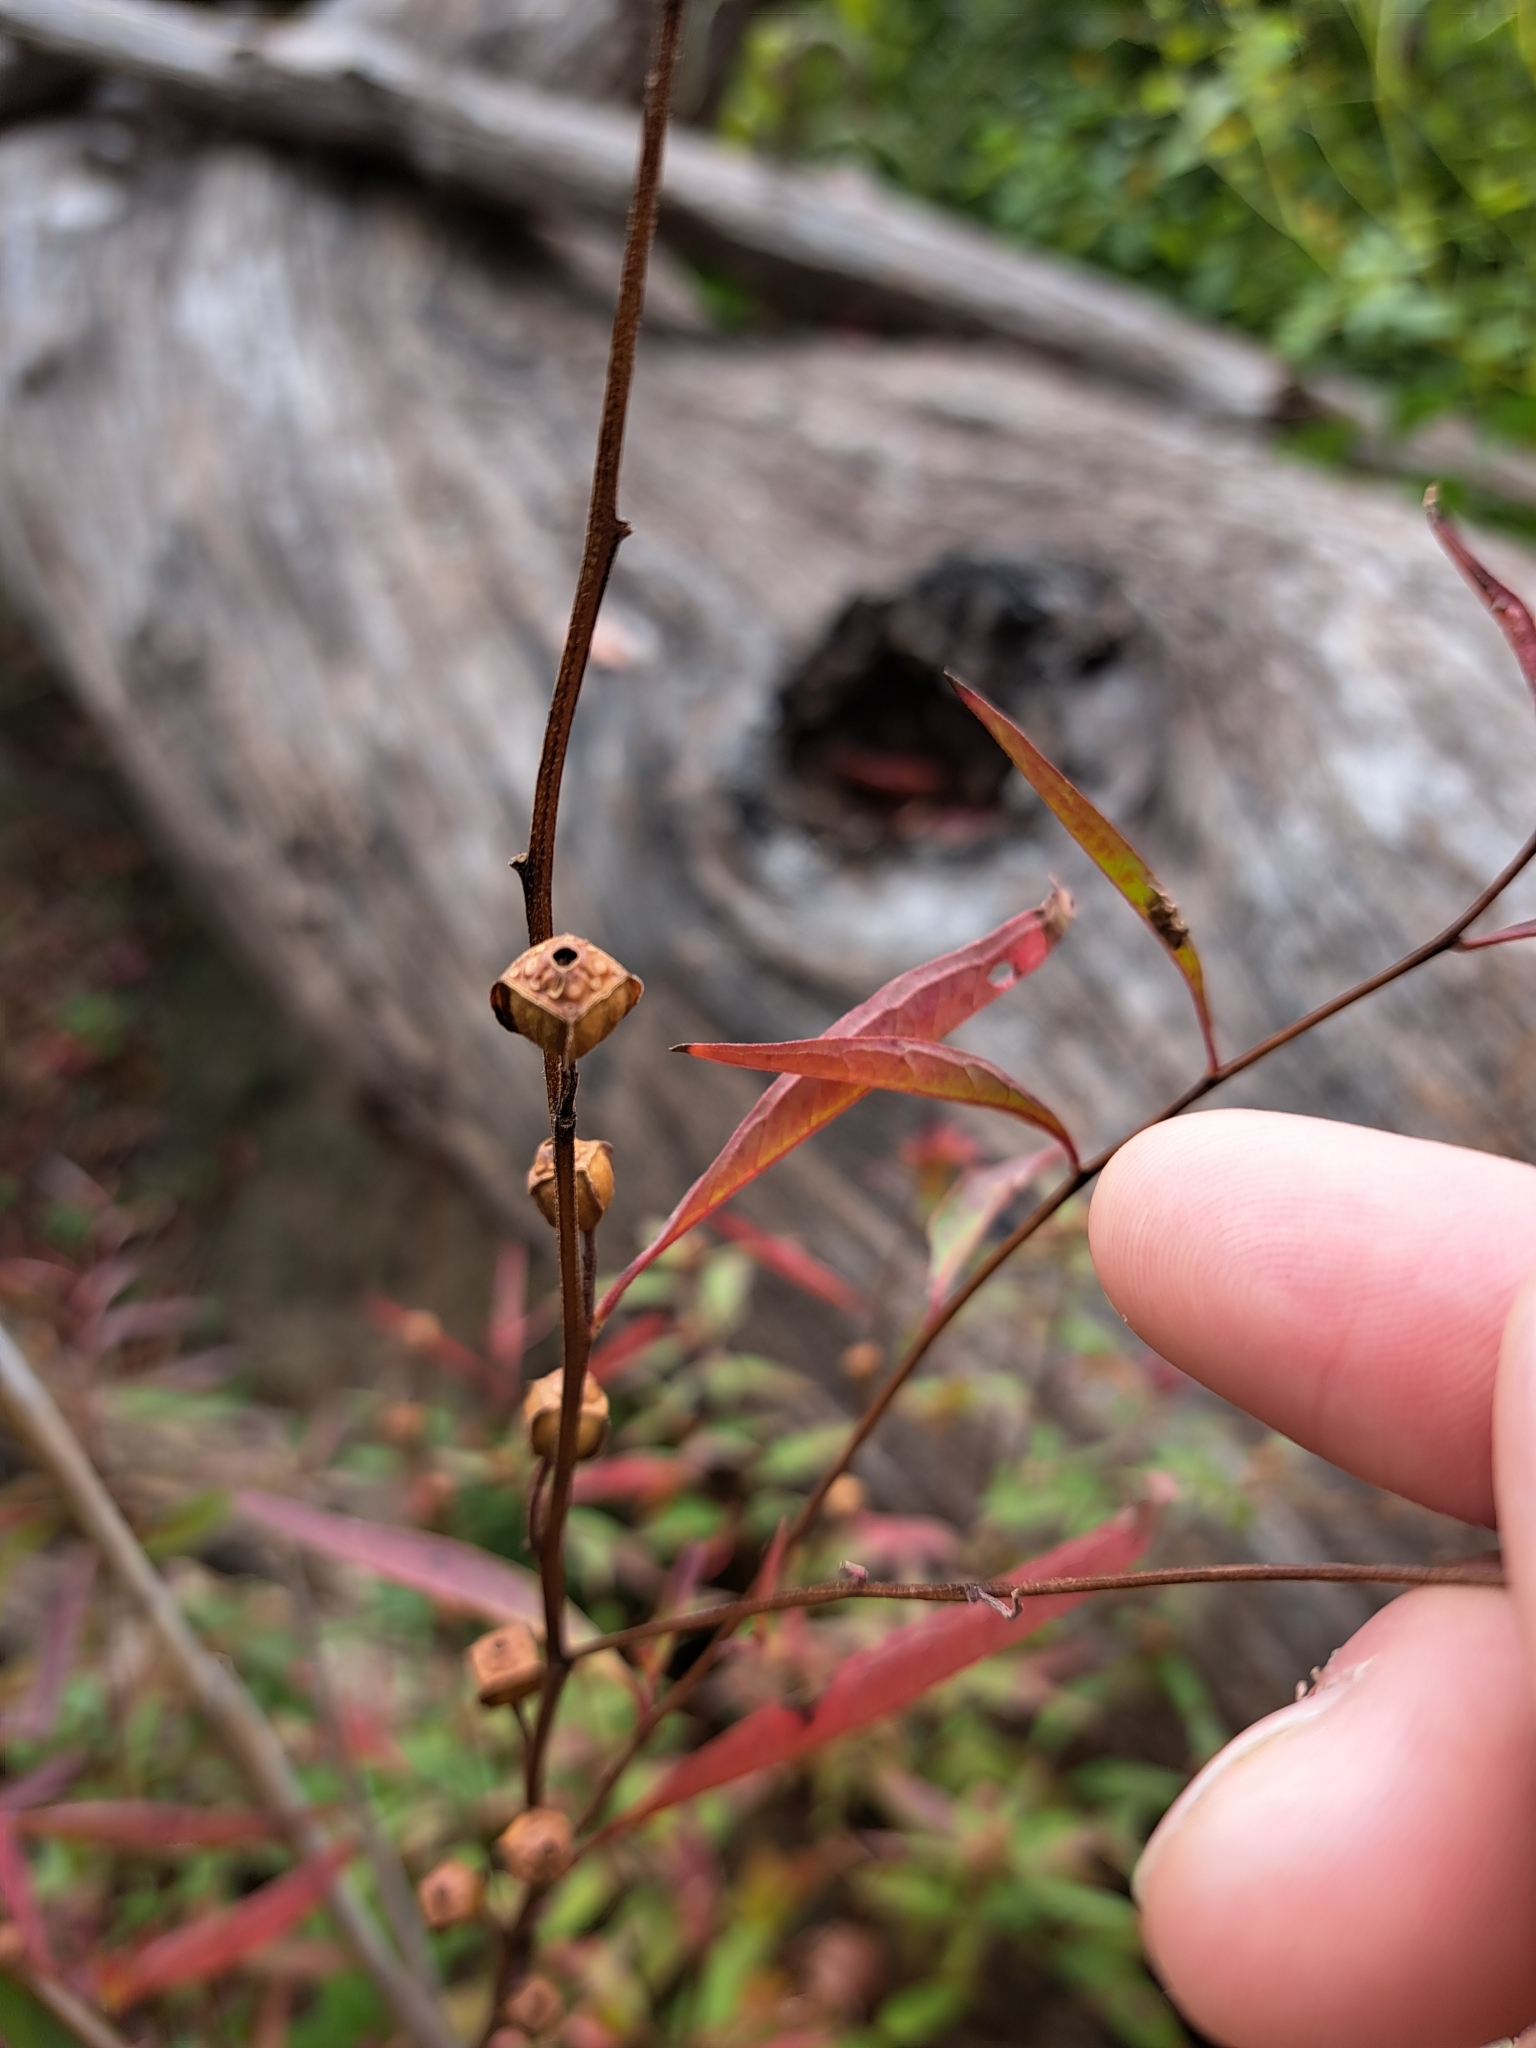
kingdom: Plantae
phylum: Tracheophyta
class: Magnoliopsida
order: Myrtales
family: Onagraceae
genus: Ludwigia
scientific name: Ludwigia alternifolia
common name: Rattlebox
